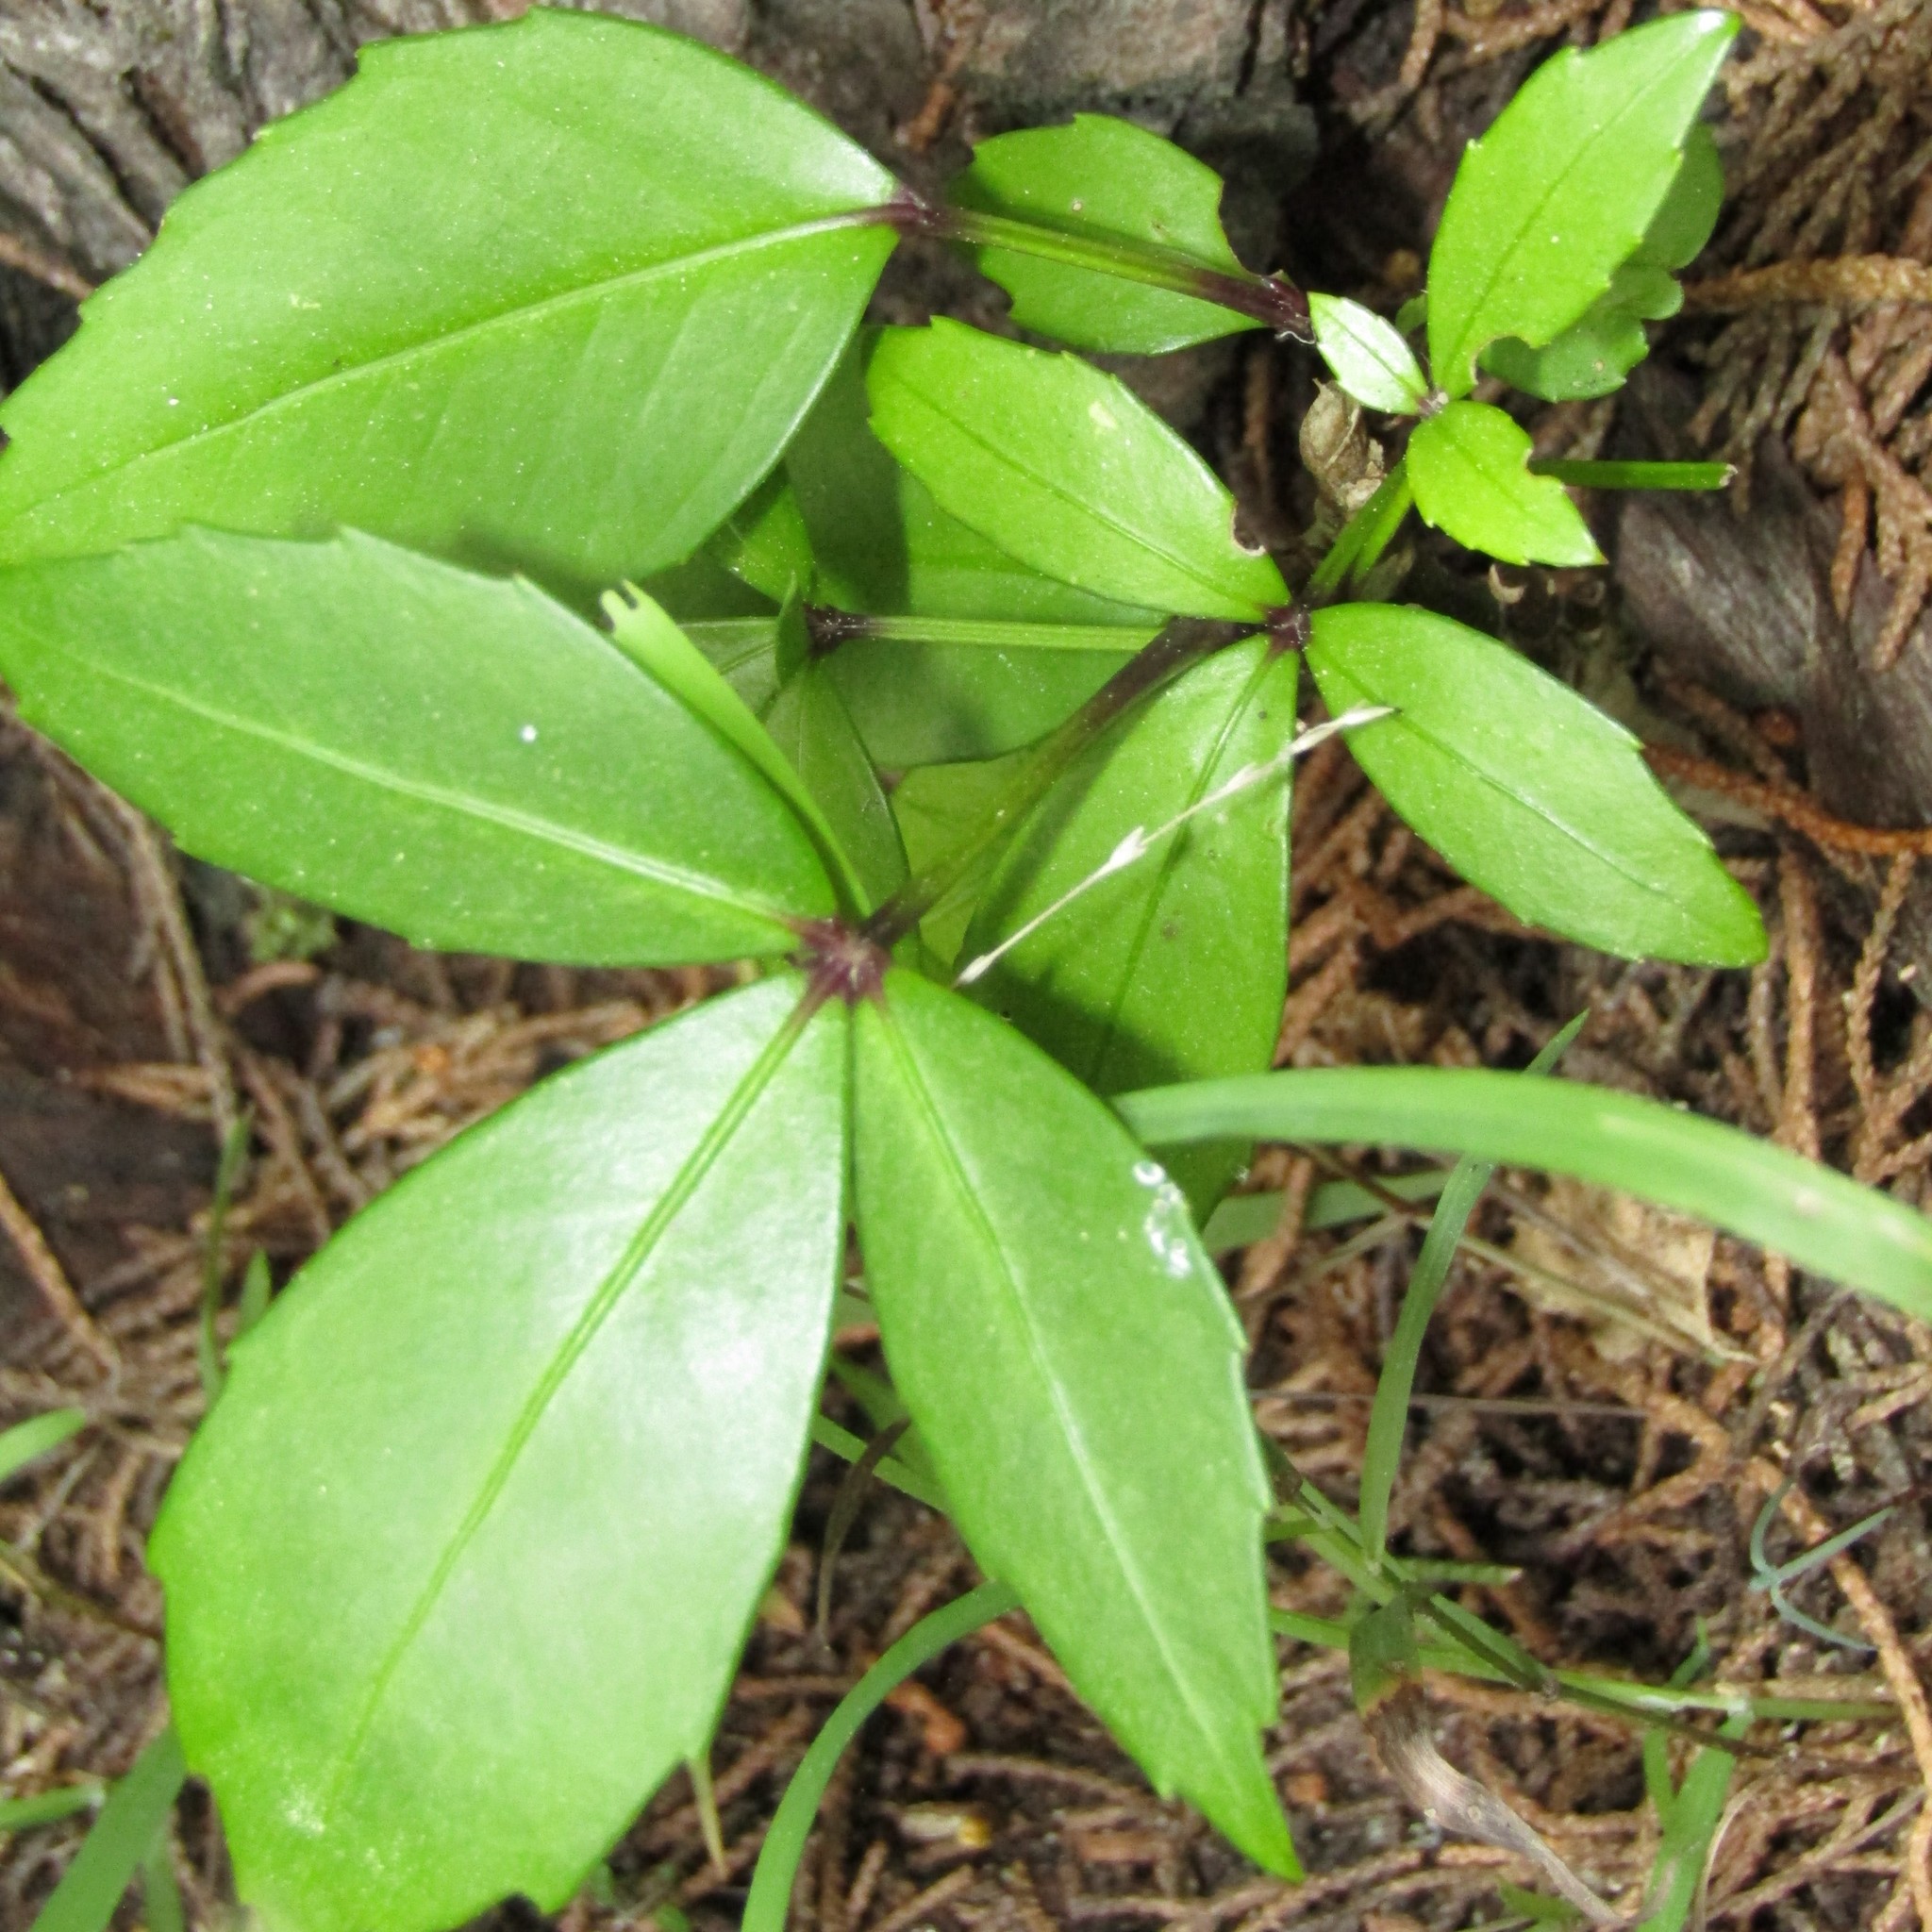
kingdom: Plantae
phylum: Tracheophyta
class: Magnoliopsida
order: Apiales
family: Araliaceae
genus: Pseudopanax
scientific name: Pseudopanax lessonii
